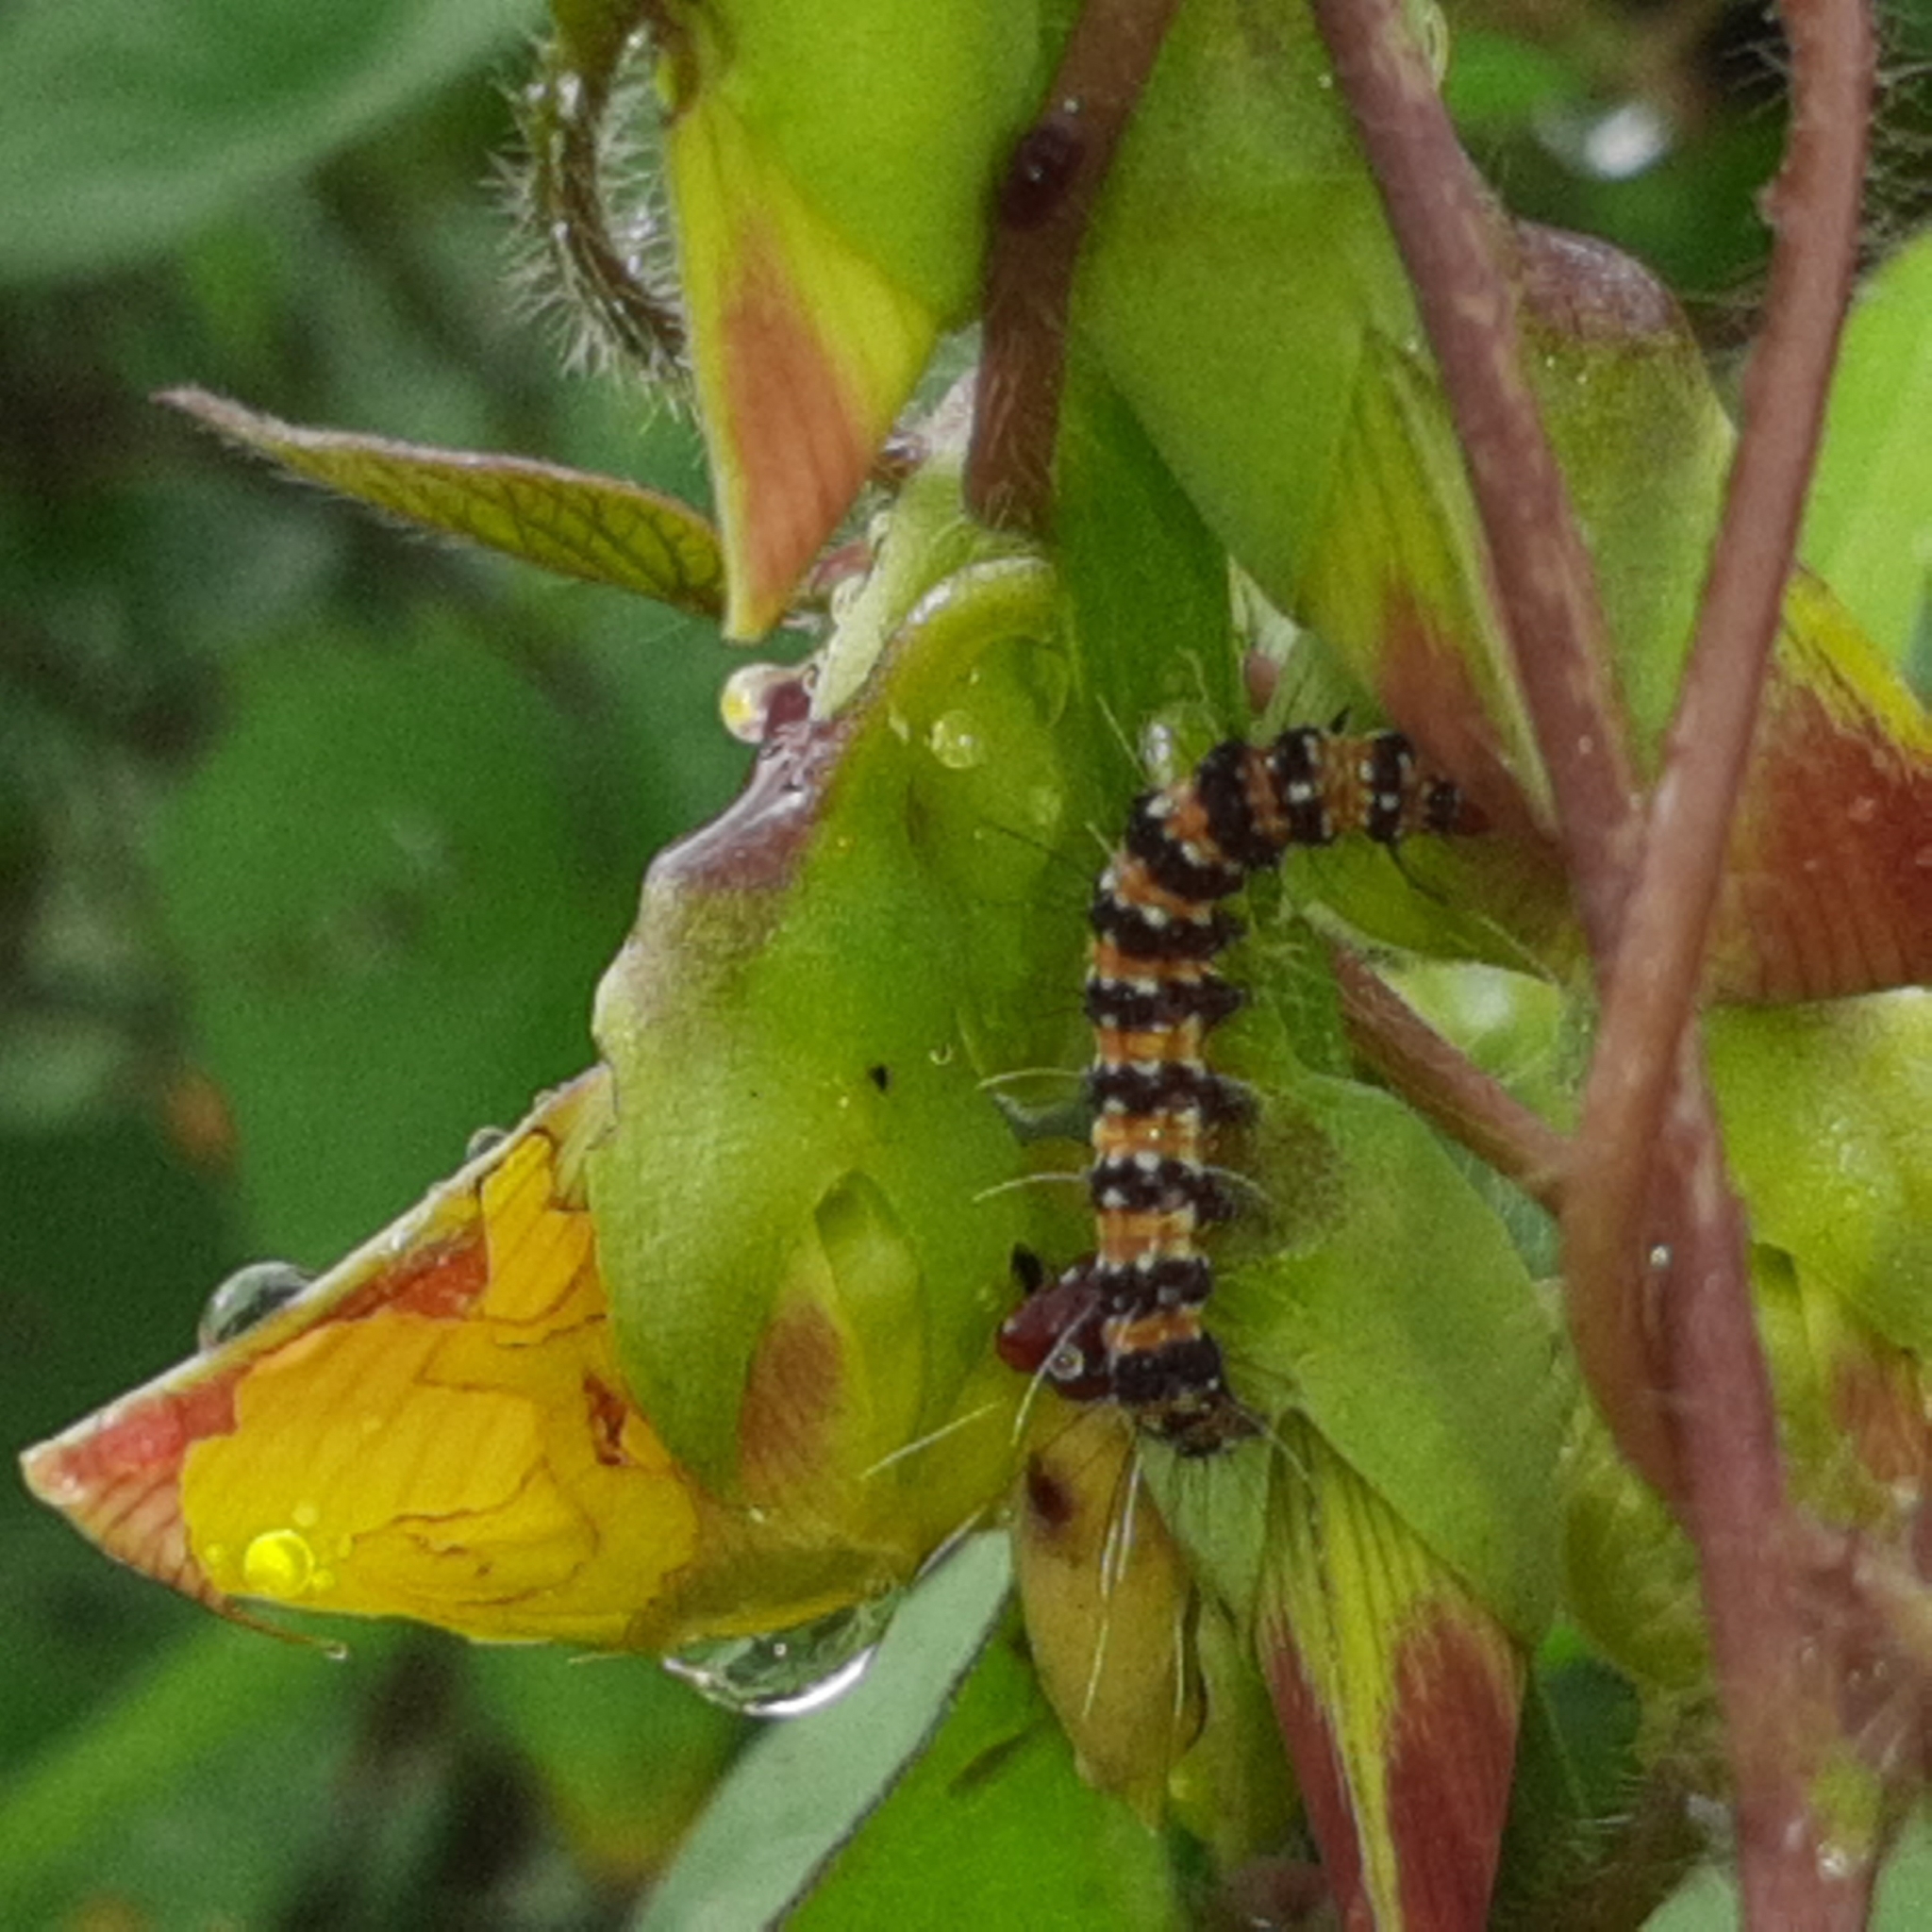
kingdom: Animalia
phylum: Arthropoda
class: Insecta
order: Lepidoptera
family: Erebidae
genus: Utetheisa
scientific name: Utetheisa ornatrix
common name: Beautiful utetheisa
